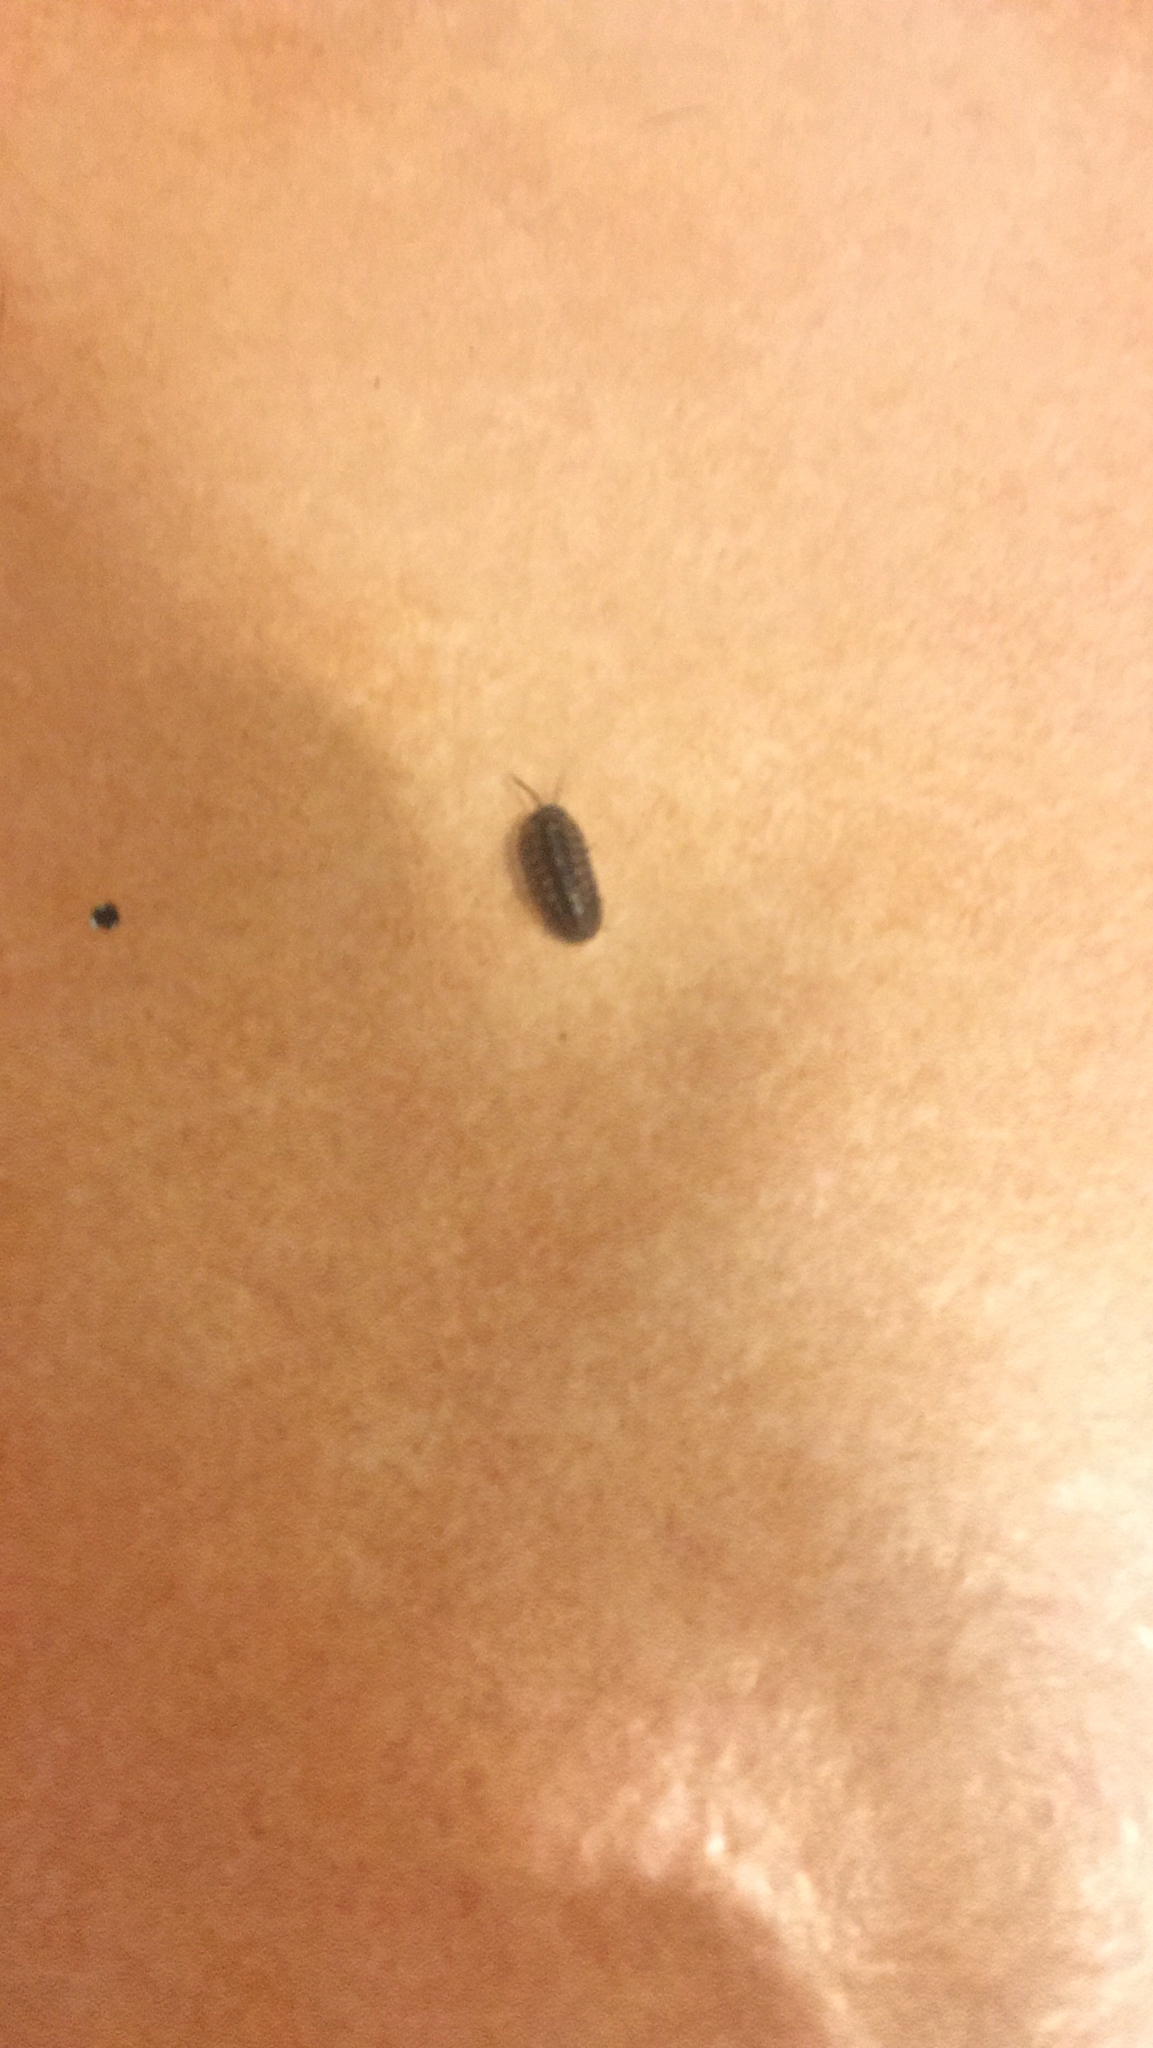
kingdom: Animalia
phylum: Arthropoda
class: Malacostraca
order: Isopoda
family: Armadillidiidae
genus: Armadillidium
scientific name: Armadillidium
